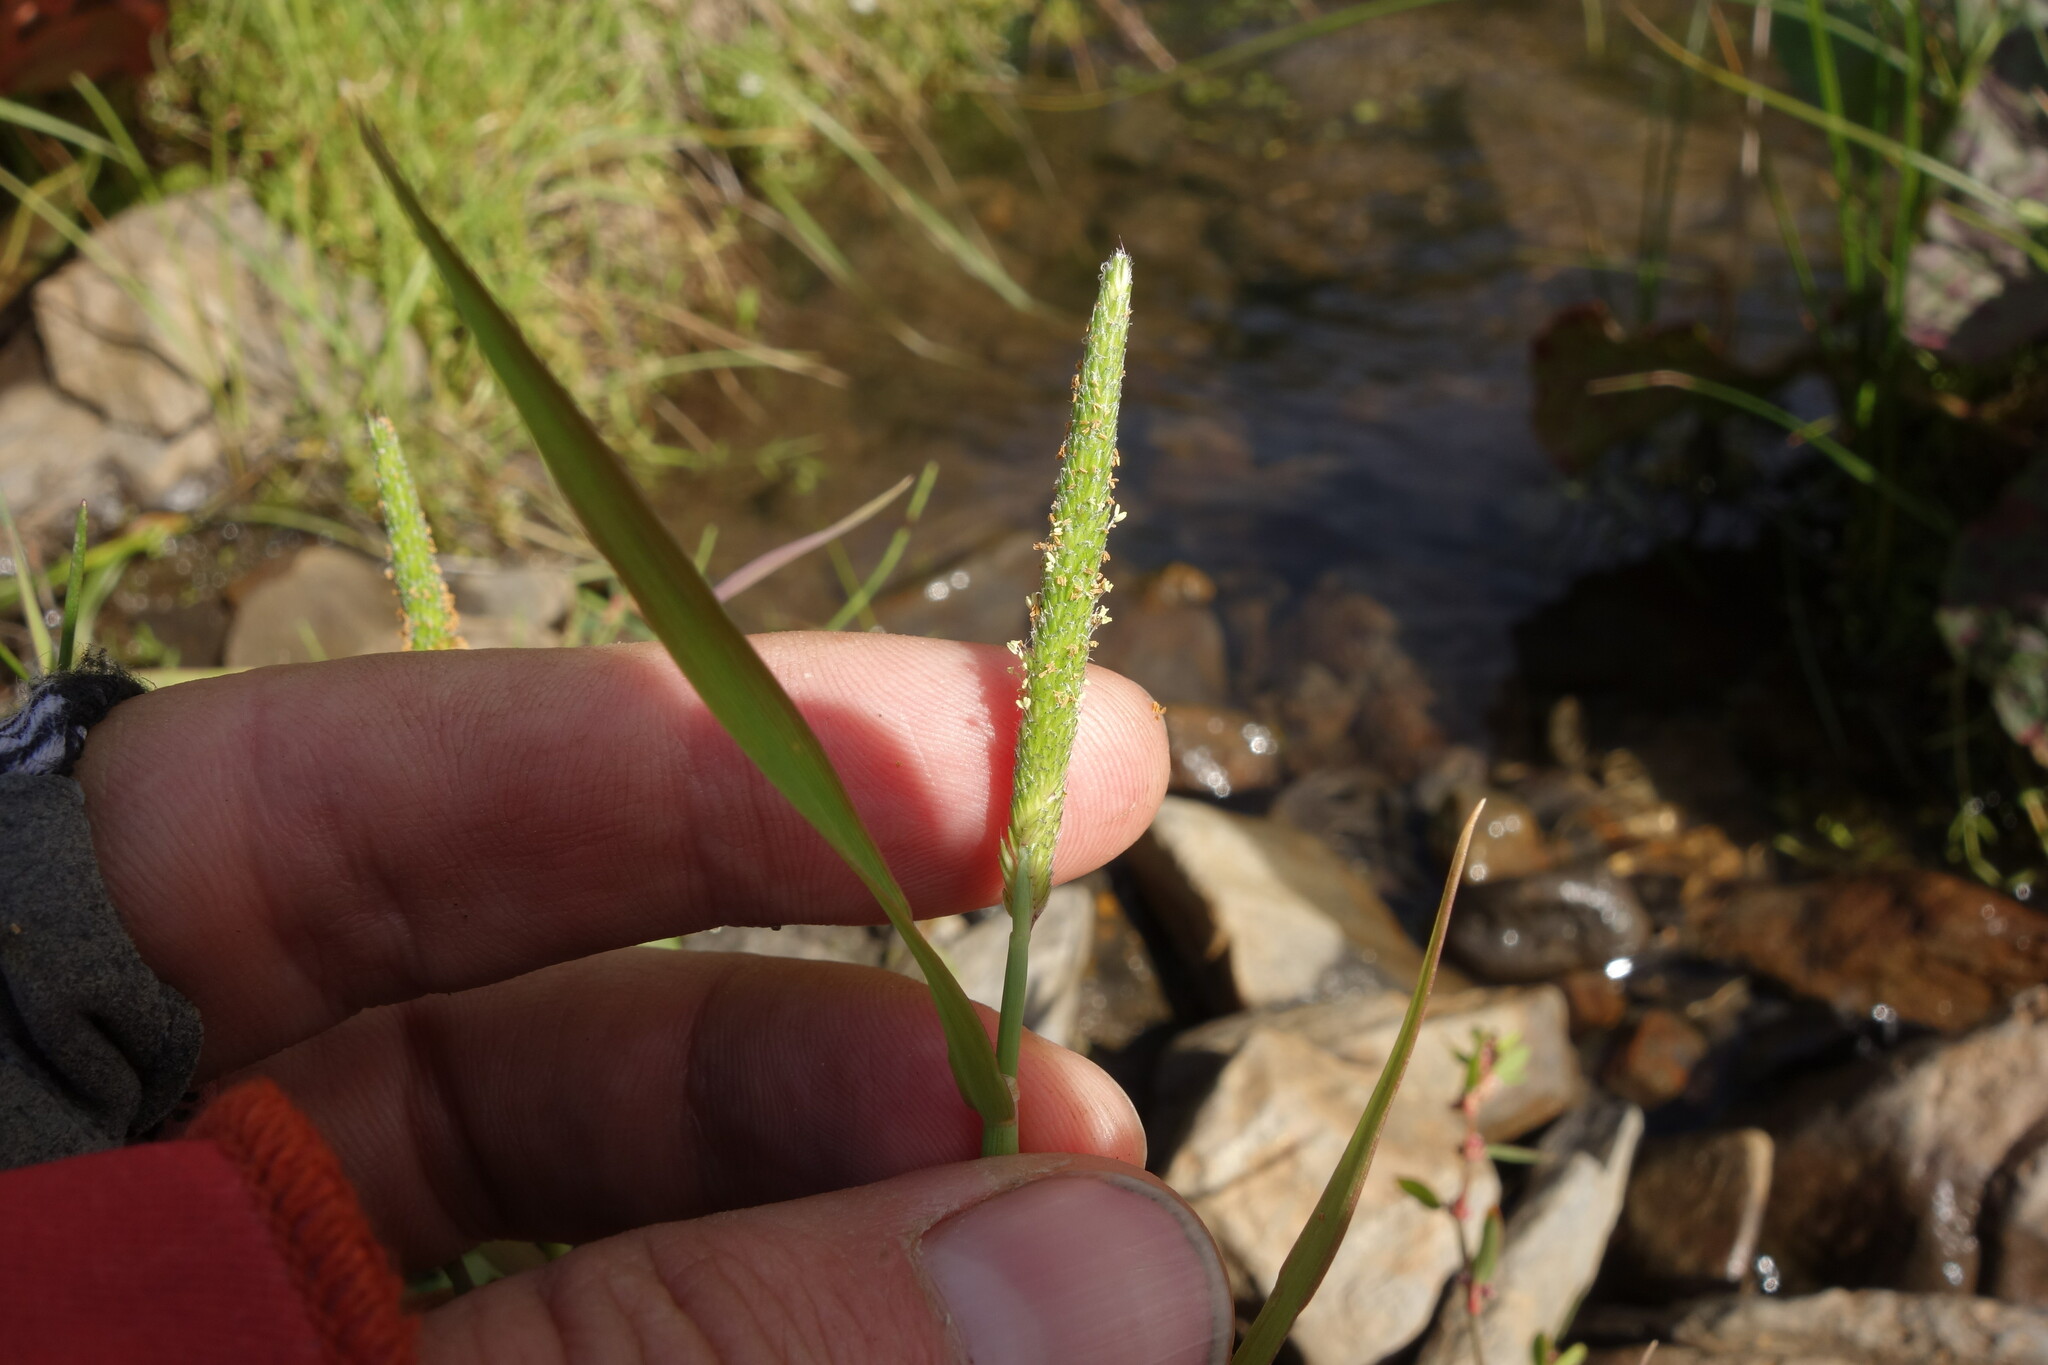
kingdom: Plantae
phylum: Tracheophyta
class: Liliopsida
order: Poales
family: Poaceae
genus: Alopecurus
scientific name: Alopecurus aequalis
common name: Orange foxtail
